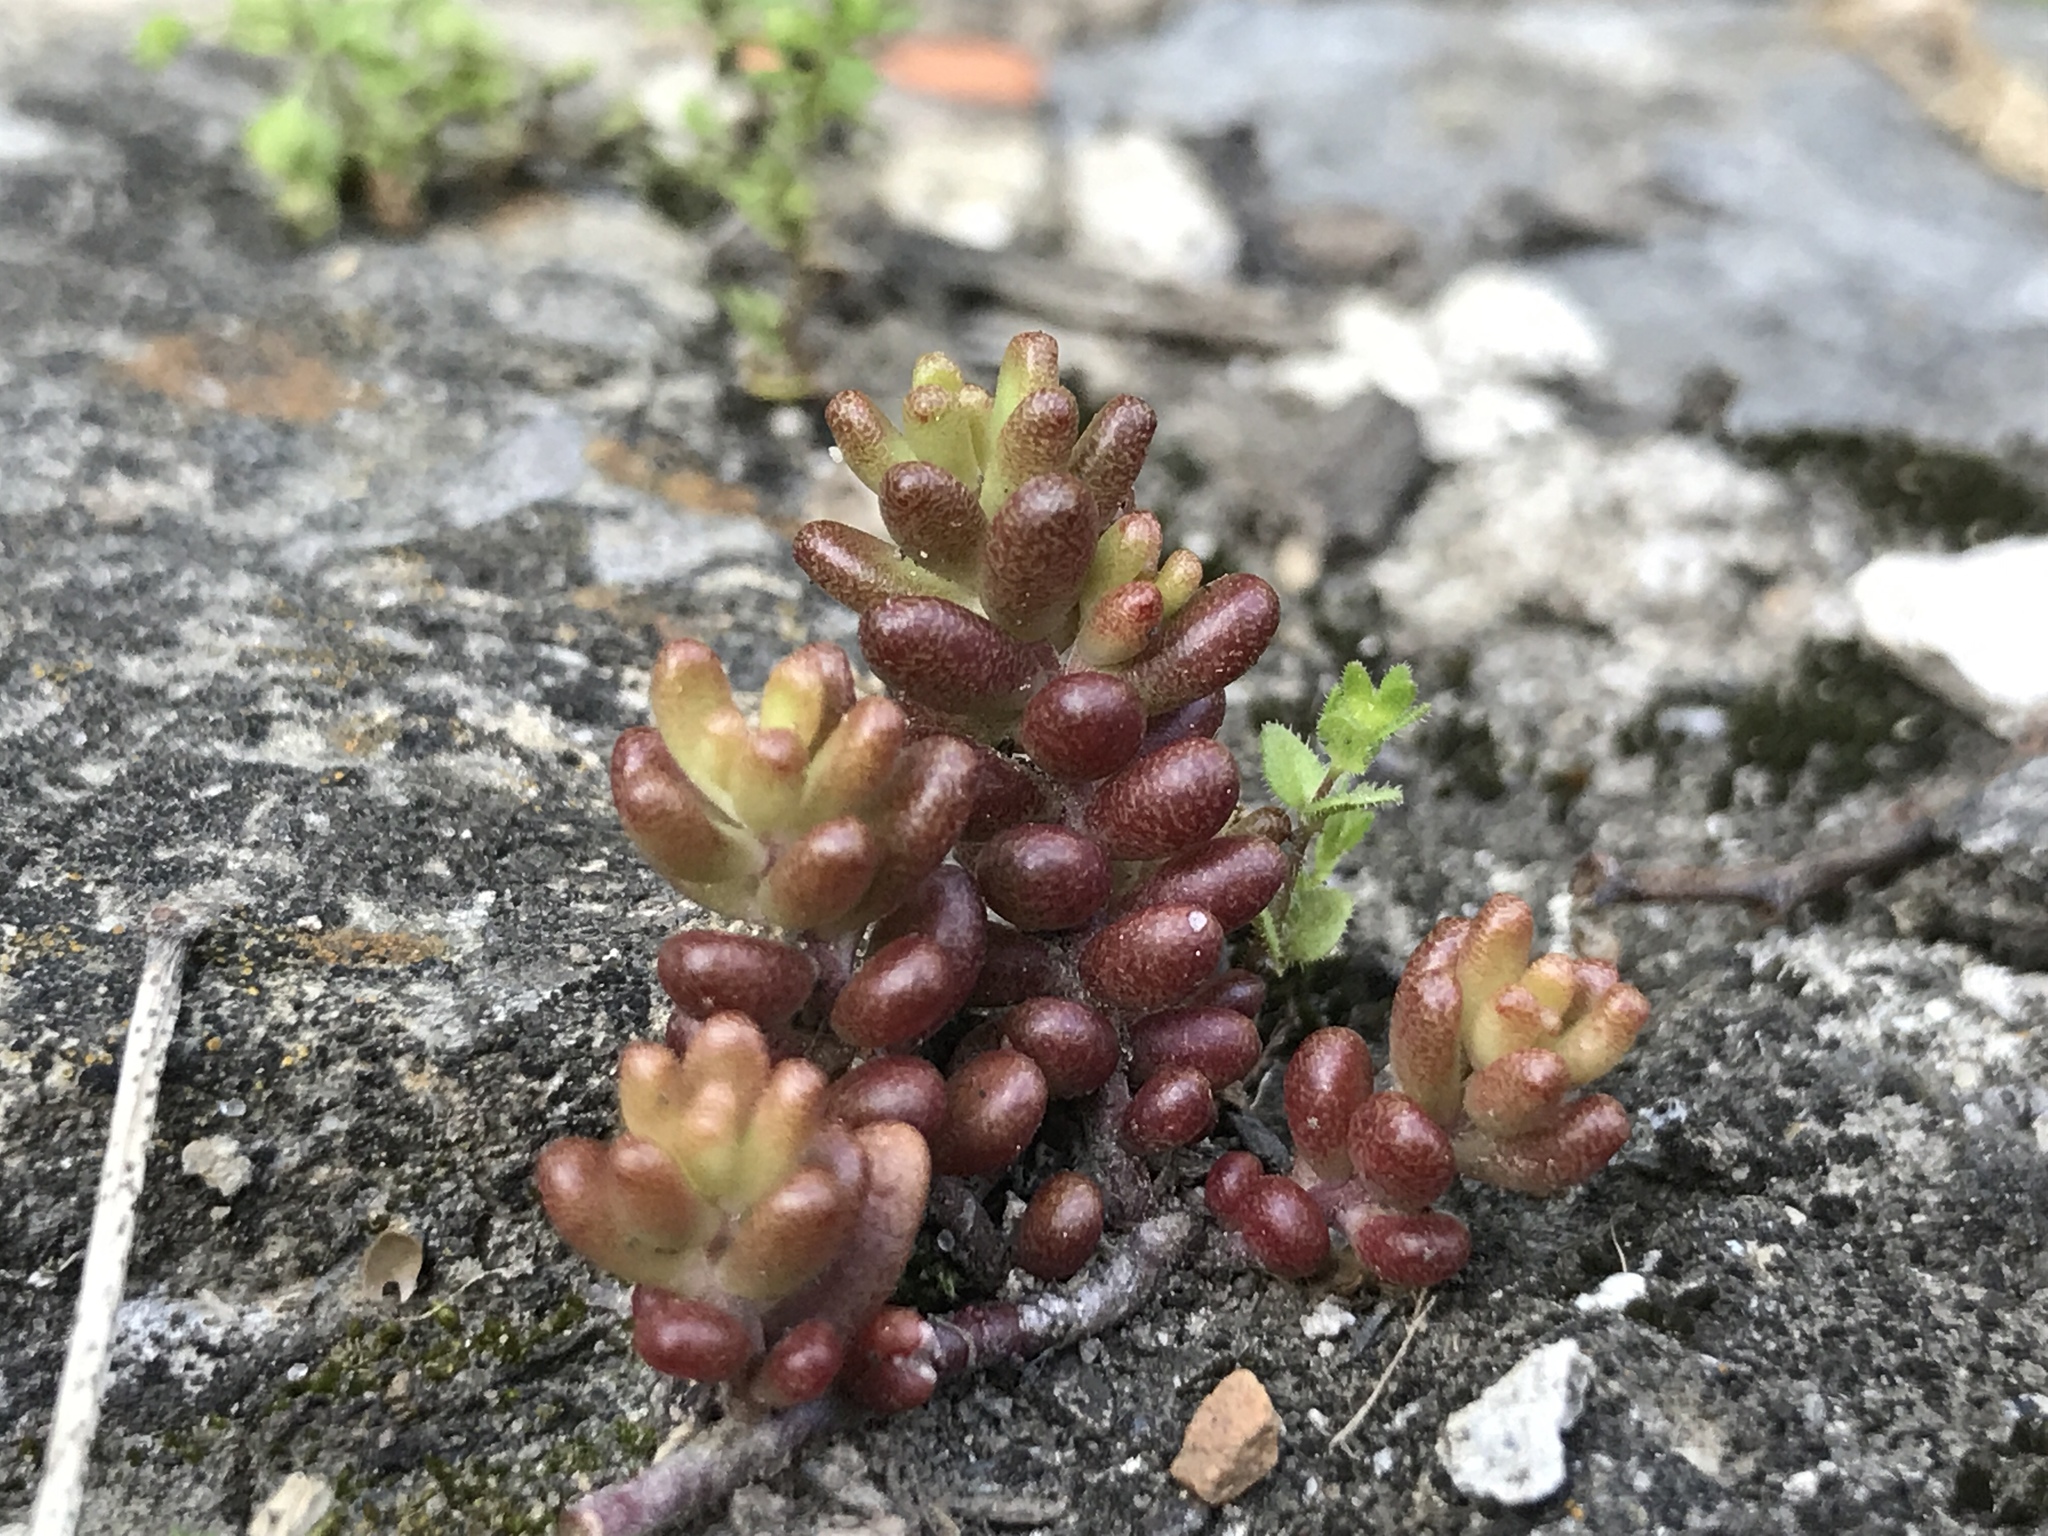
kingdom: Plantae
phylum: Tracheophyta
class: Magnoliopsida
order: Saxifragales
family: Crassulaceae
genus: Sedum
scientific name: Sedum album
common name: White stonecrop
